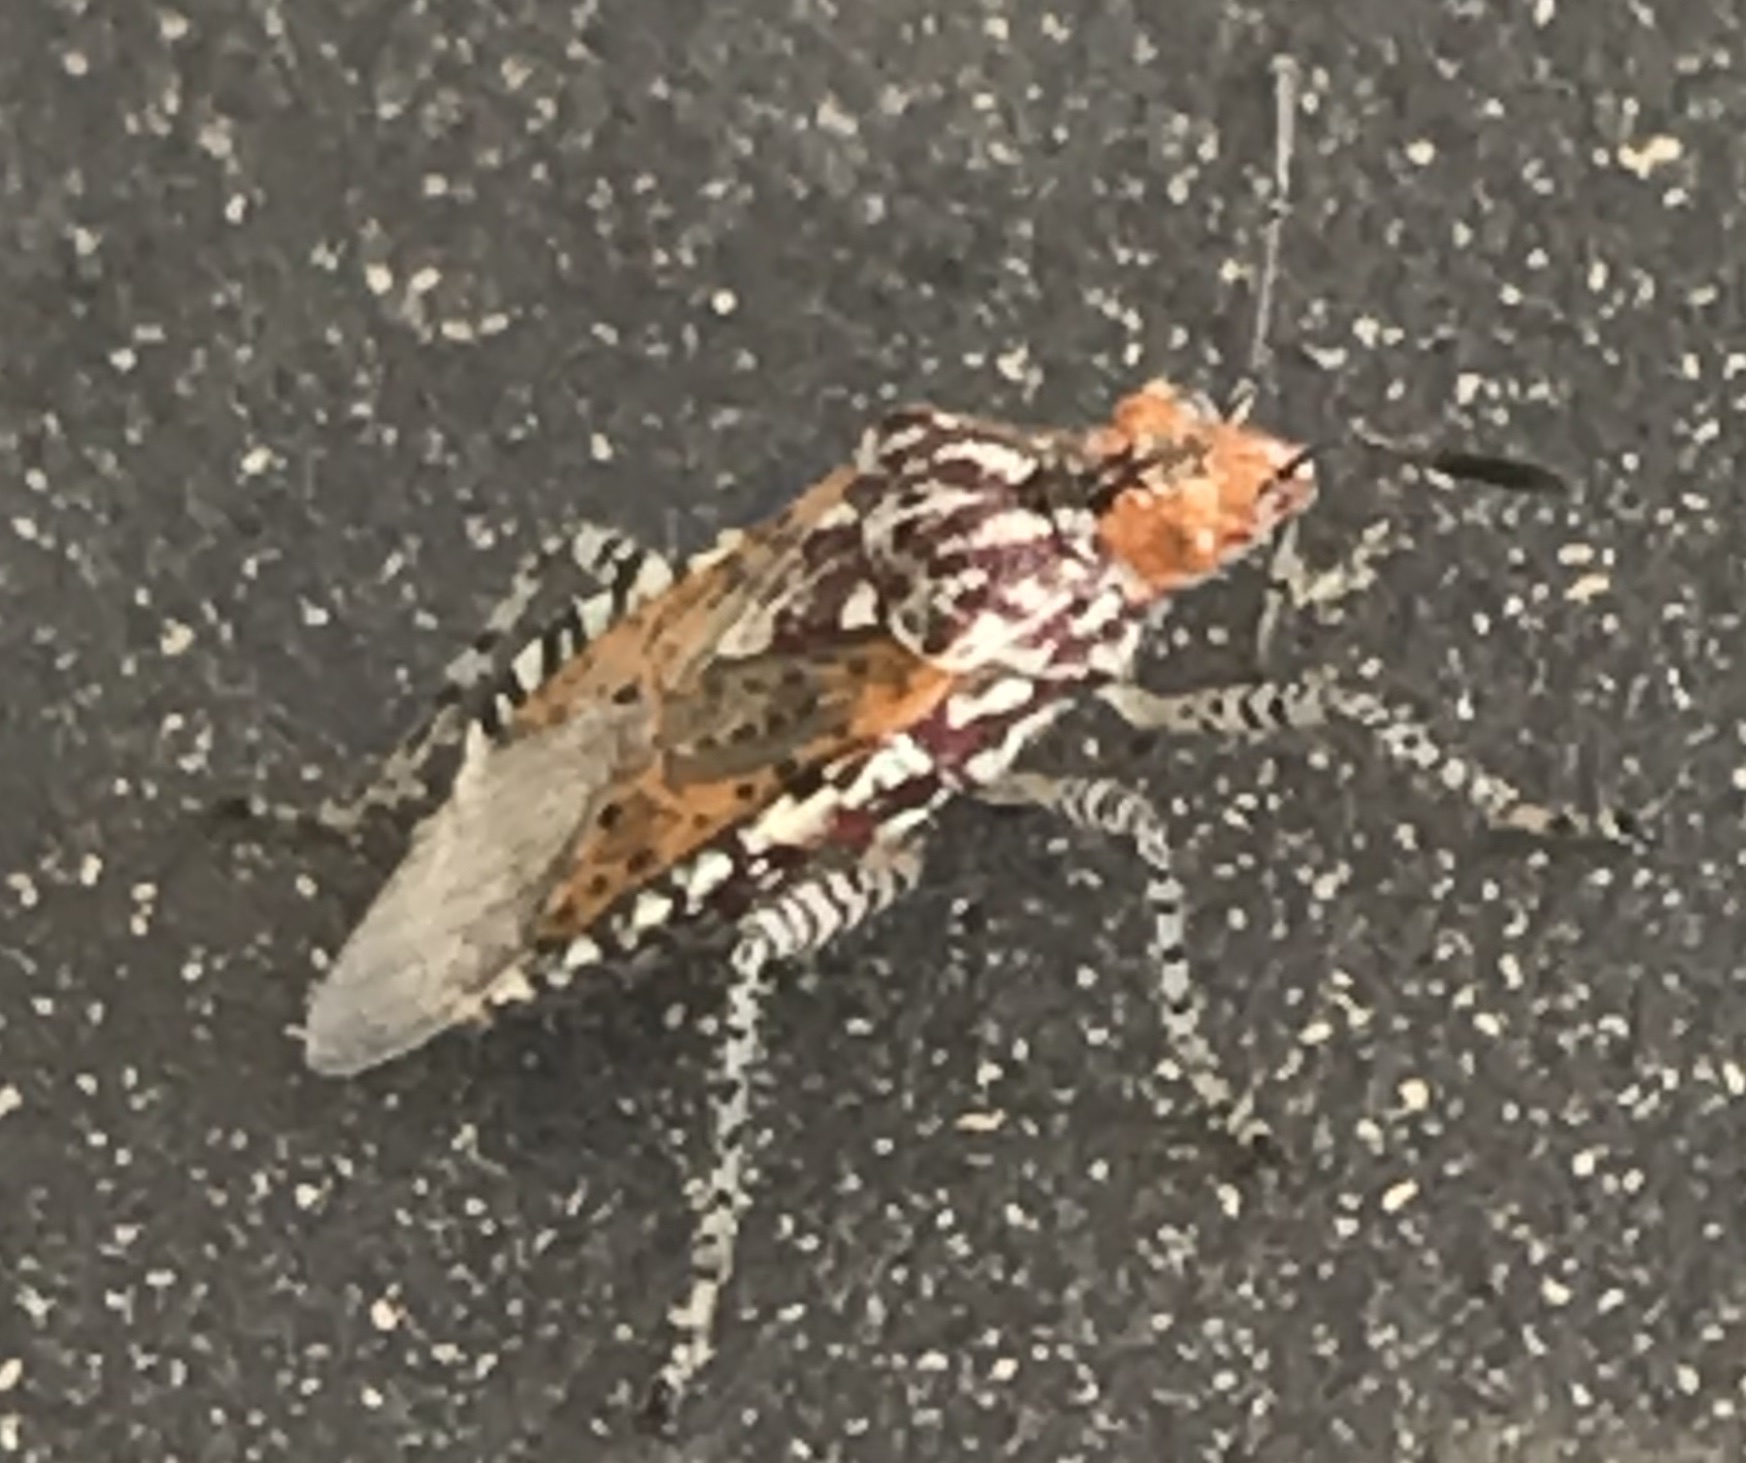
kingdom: Animalia
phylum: Arthropoda
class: Insecta
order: Hemiptera
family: Rhopalidae
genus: Niesthrea
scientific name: Niesthrea louisianica
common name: Scentless plant bug
